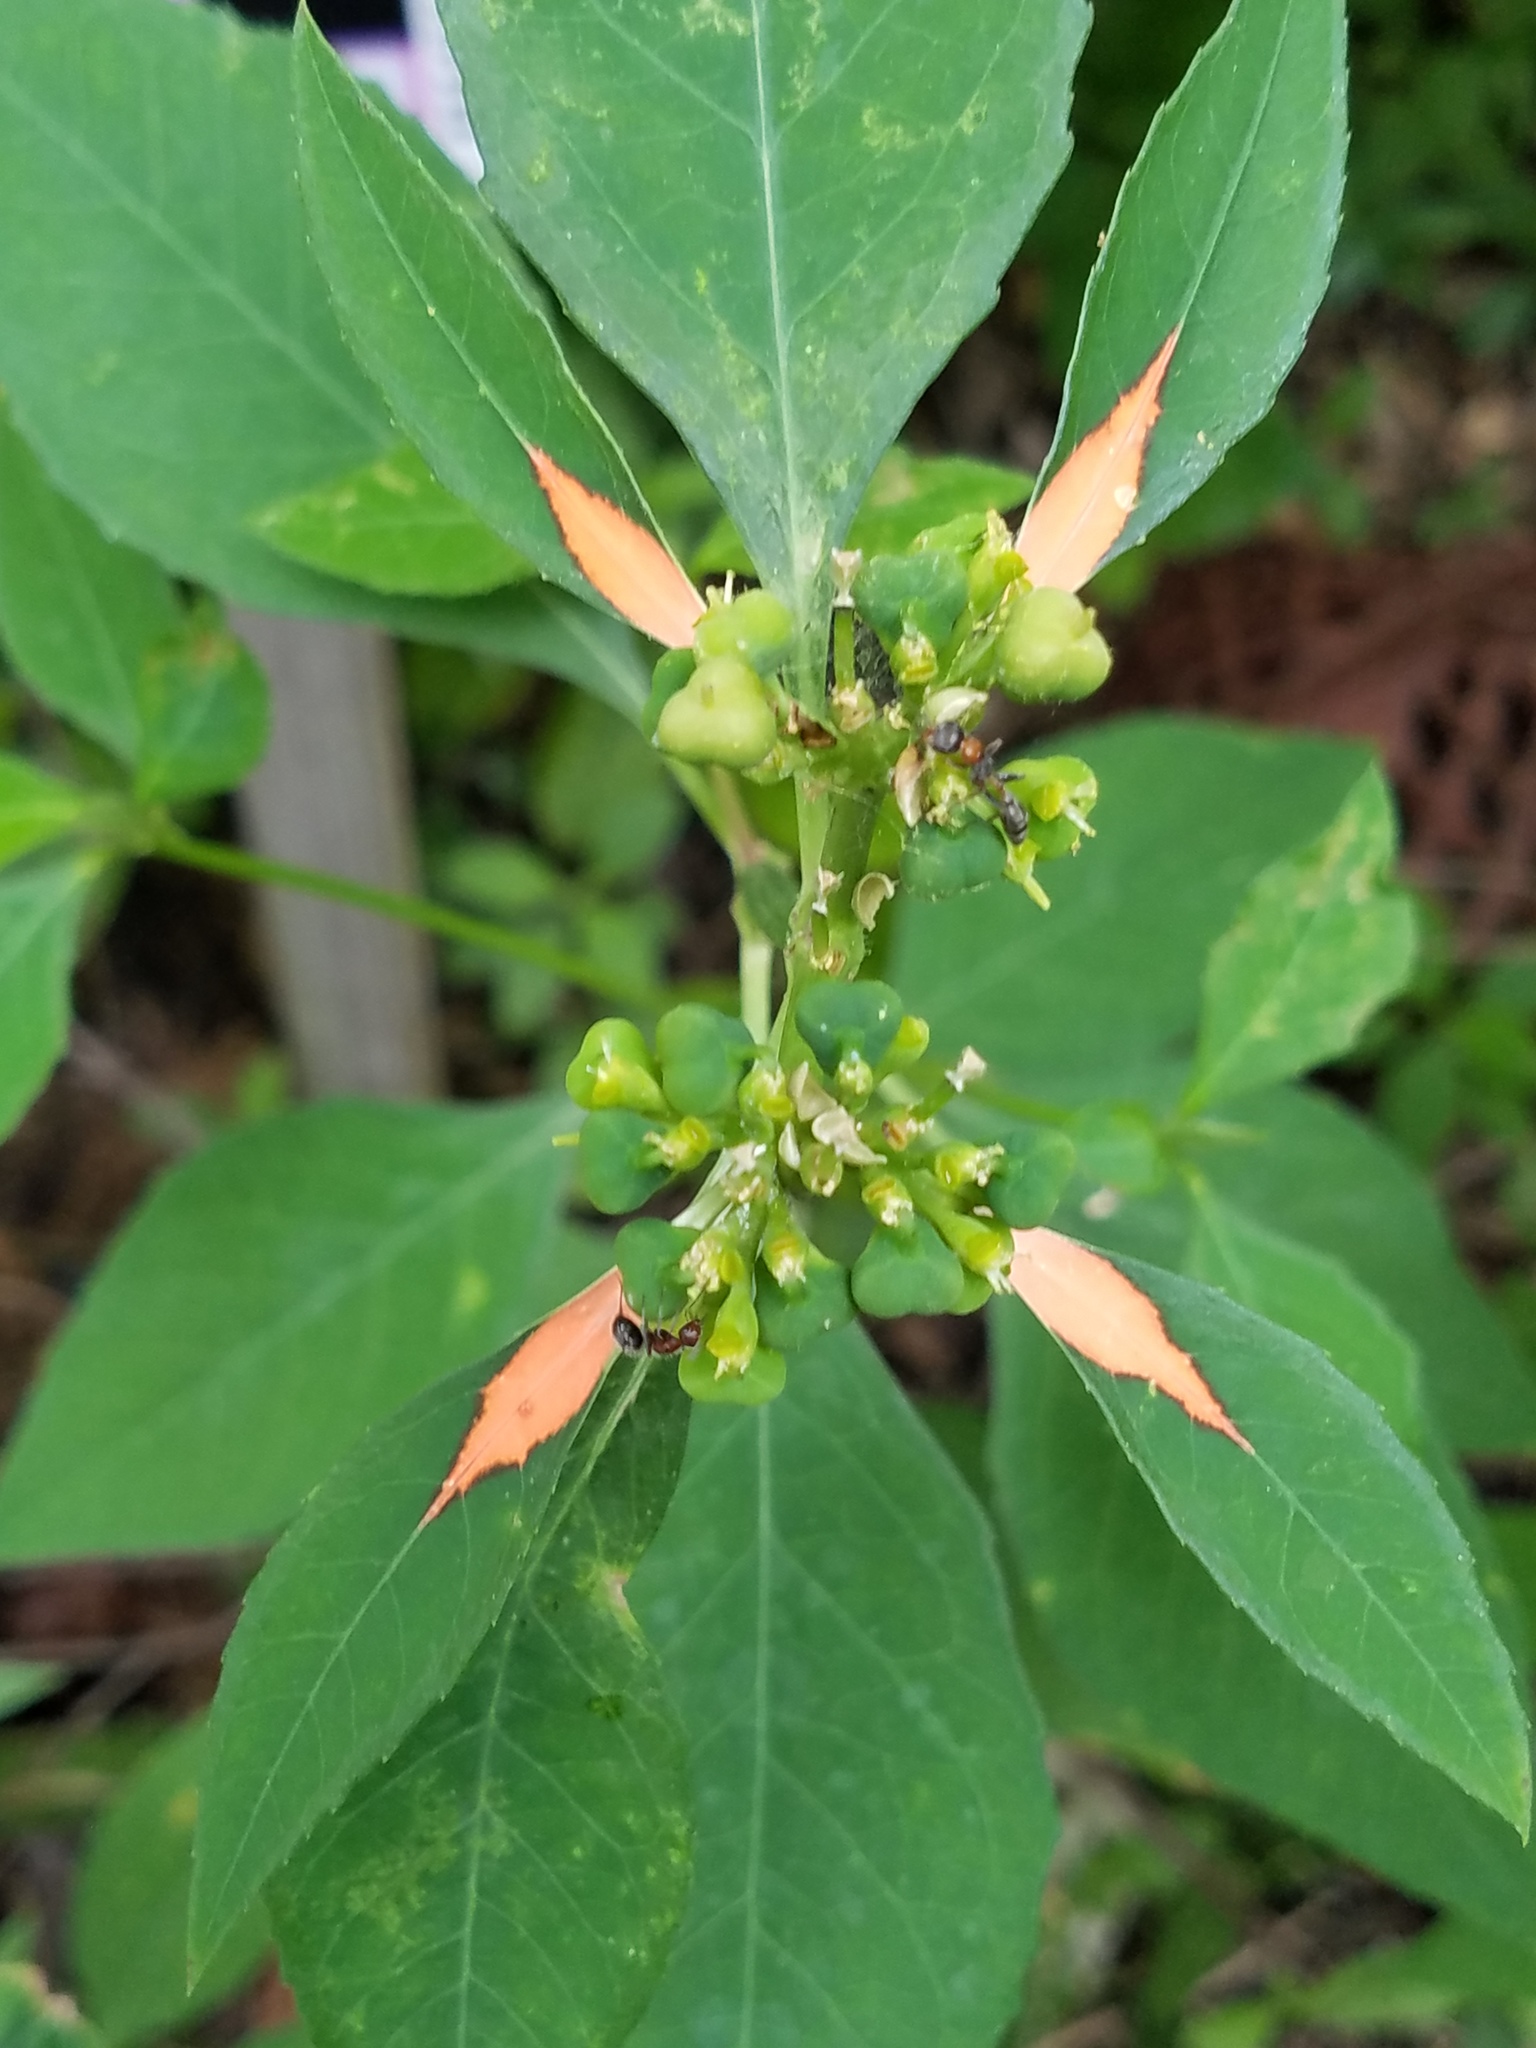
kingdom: Plantae
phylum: Tracheophyta
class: Magnoliopsida
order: Malpighiales
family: Euphorbiaceae
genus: Euphorbia
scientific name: Euphorbia heterophylla
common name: Mexican fireplant
